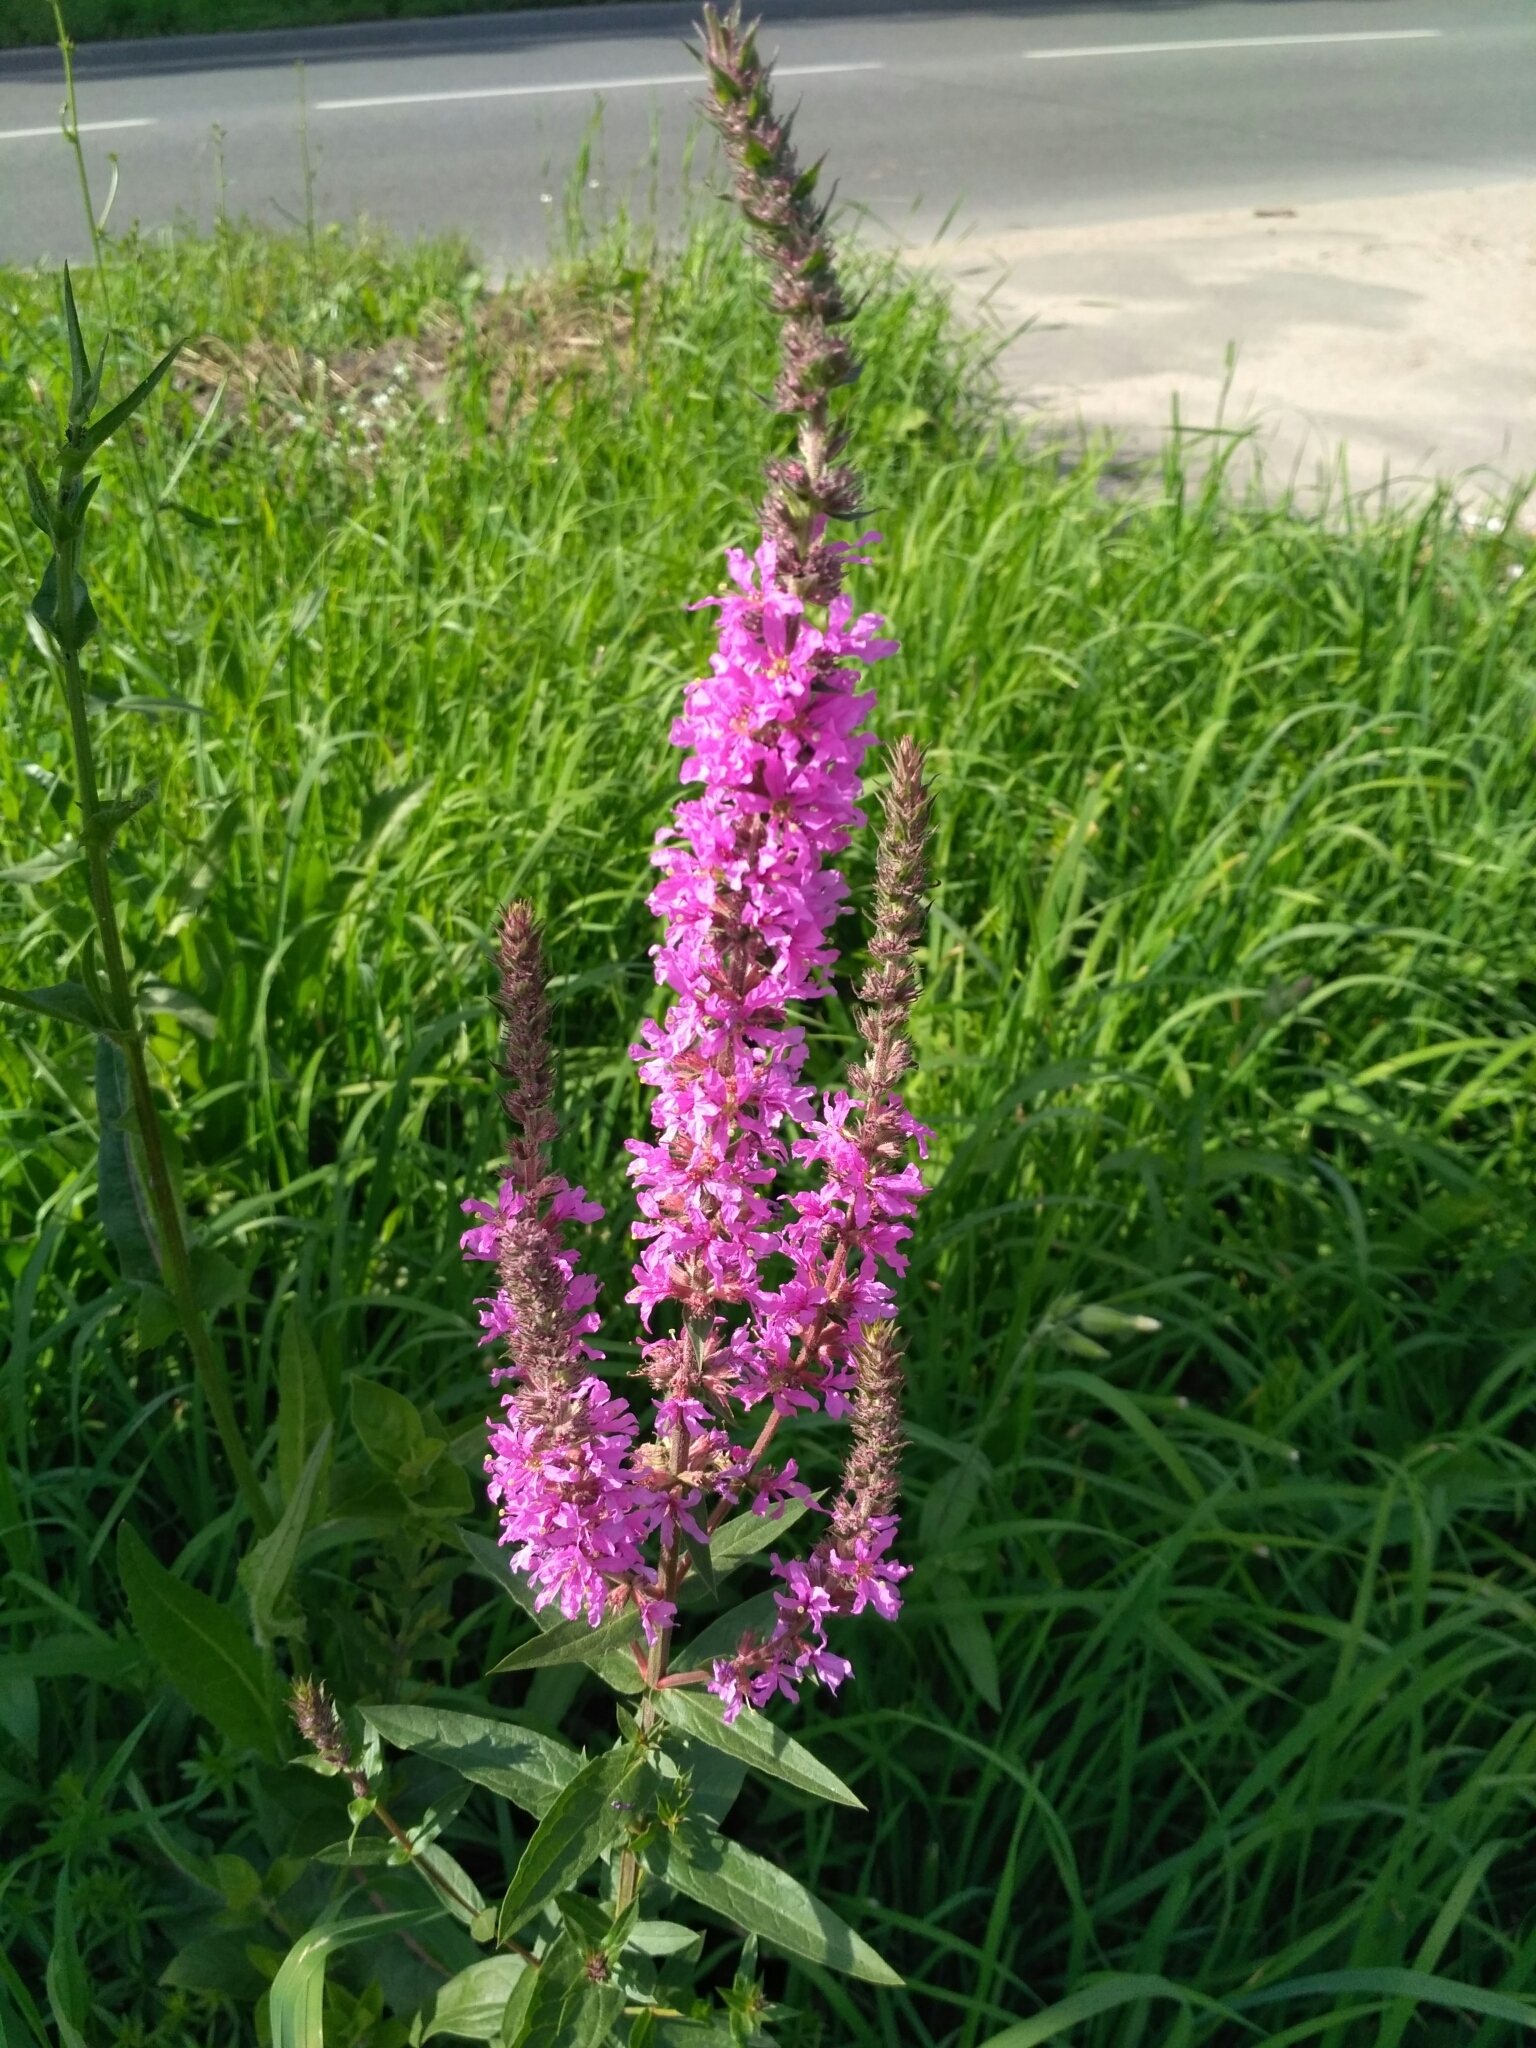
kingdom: Plantae
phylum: Tracheophyta
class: Magnoliopsida
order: Myrtales
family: Lythraceae
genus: Lythrum
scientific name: Lythrum salicaria
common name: Purple loosestrife
